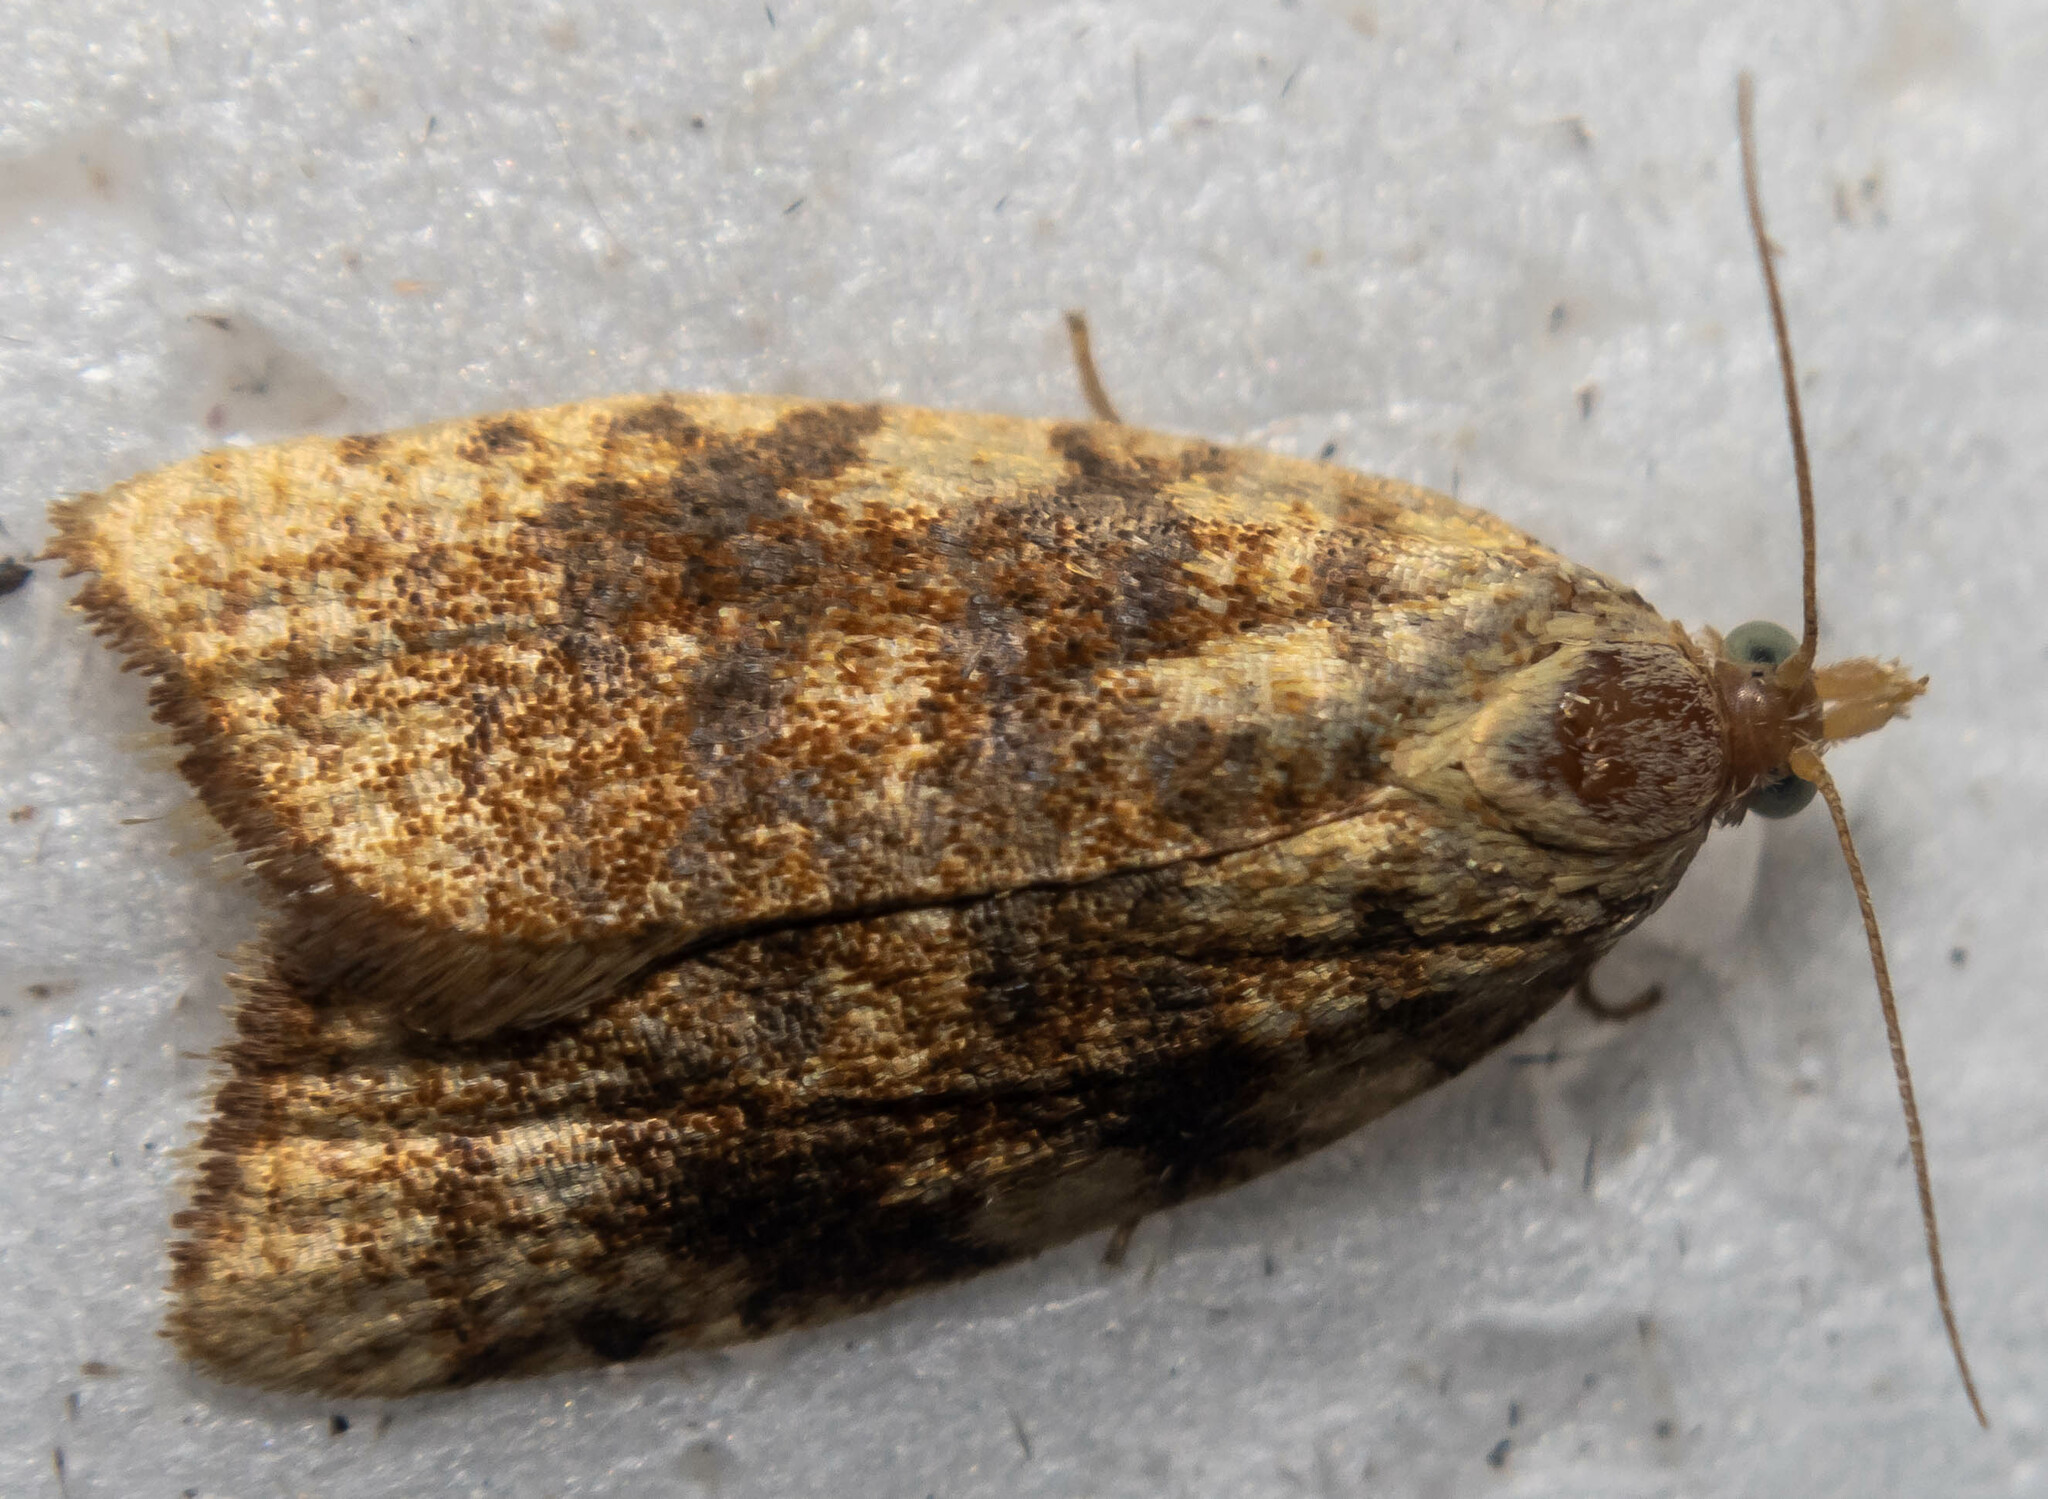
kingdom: Animalia
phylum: Arthropoda
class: Insecta
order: Lepidoptera
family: Tortricidae
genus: Aleimma
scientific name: Aleimma loeflingiana
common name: Yellow oak button
